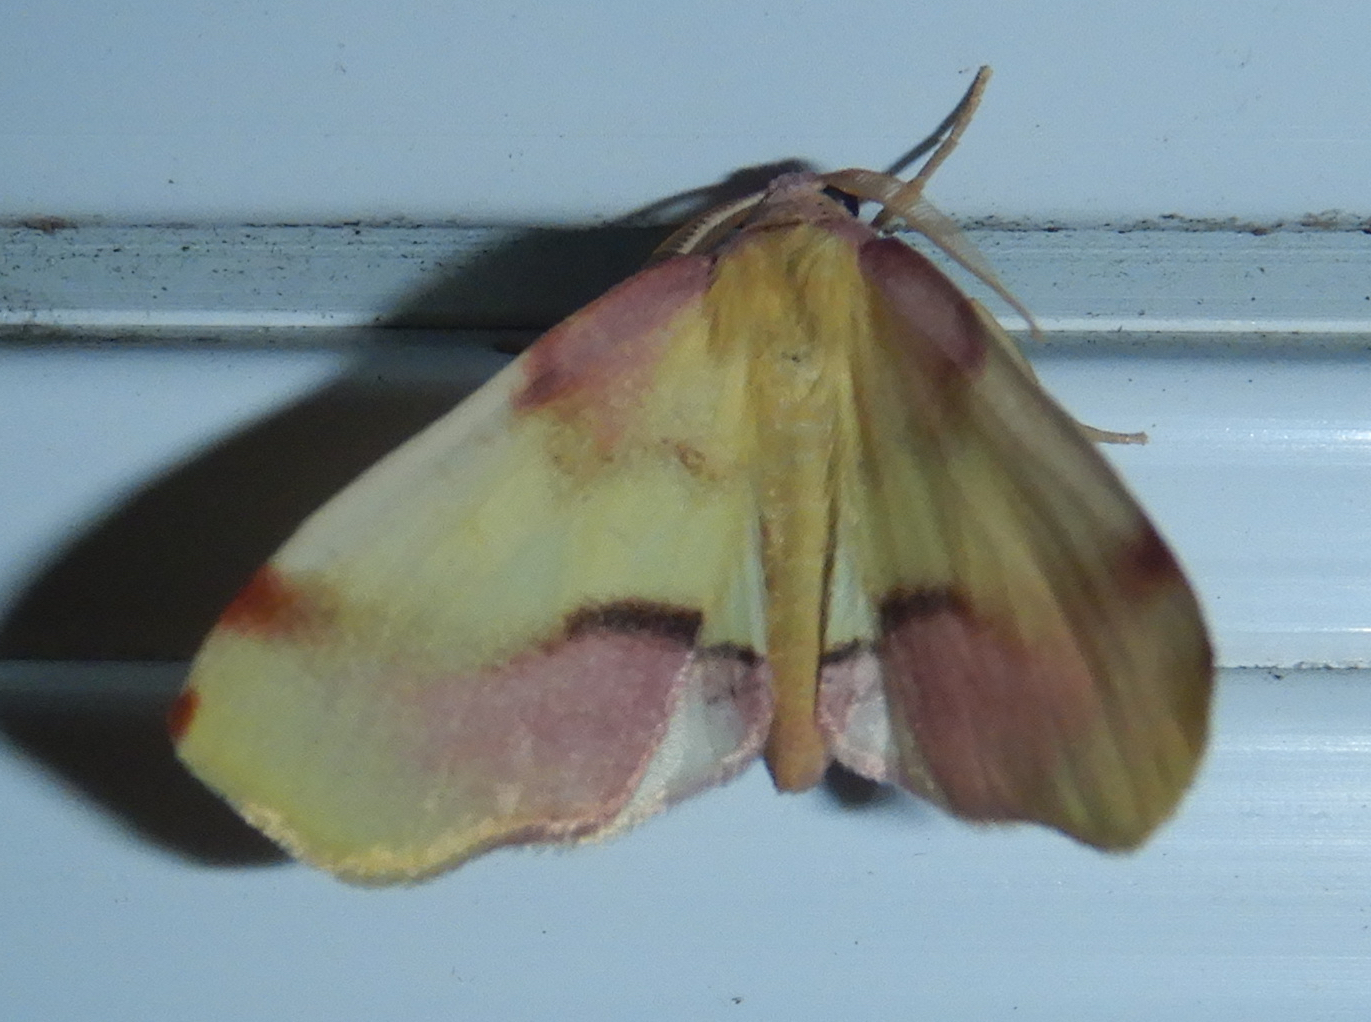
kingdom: Animalia
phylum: Arthropoda
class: Insecta
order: Lepidoptera
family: Geometridae
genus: Plagodis
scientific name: Plagodis serinaria
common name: Lemon plagodis
